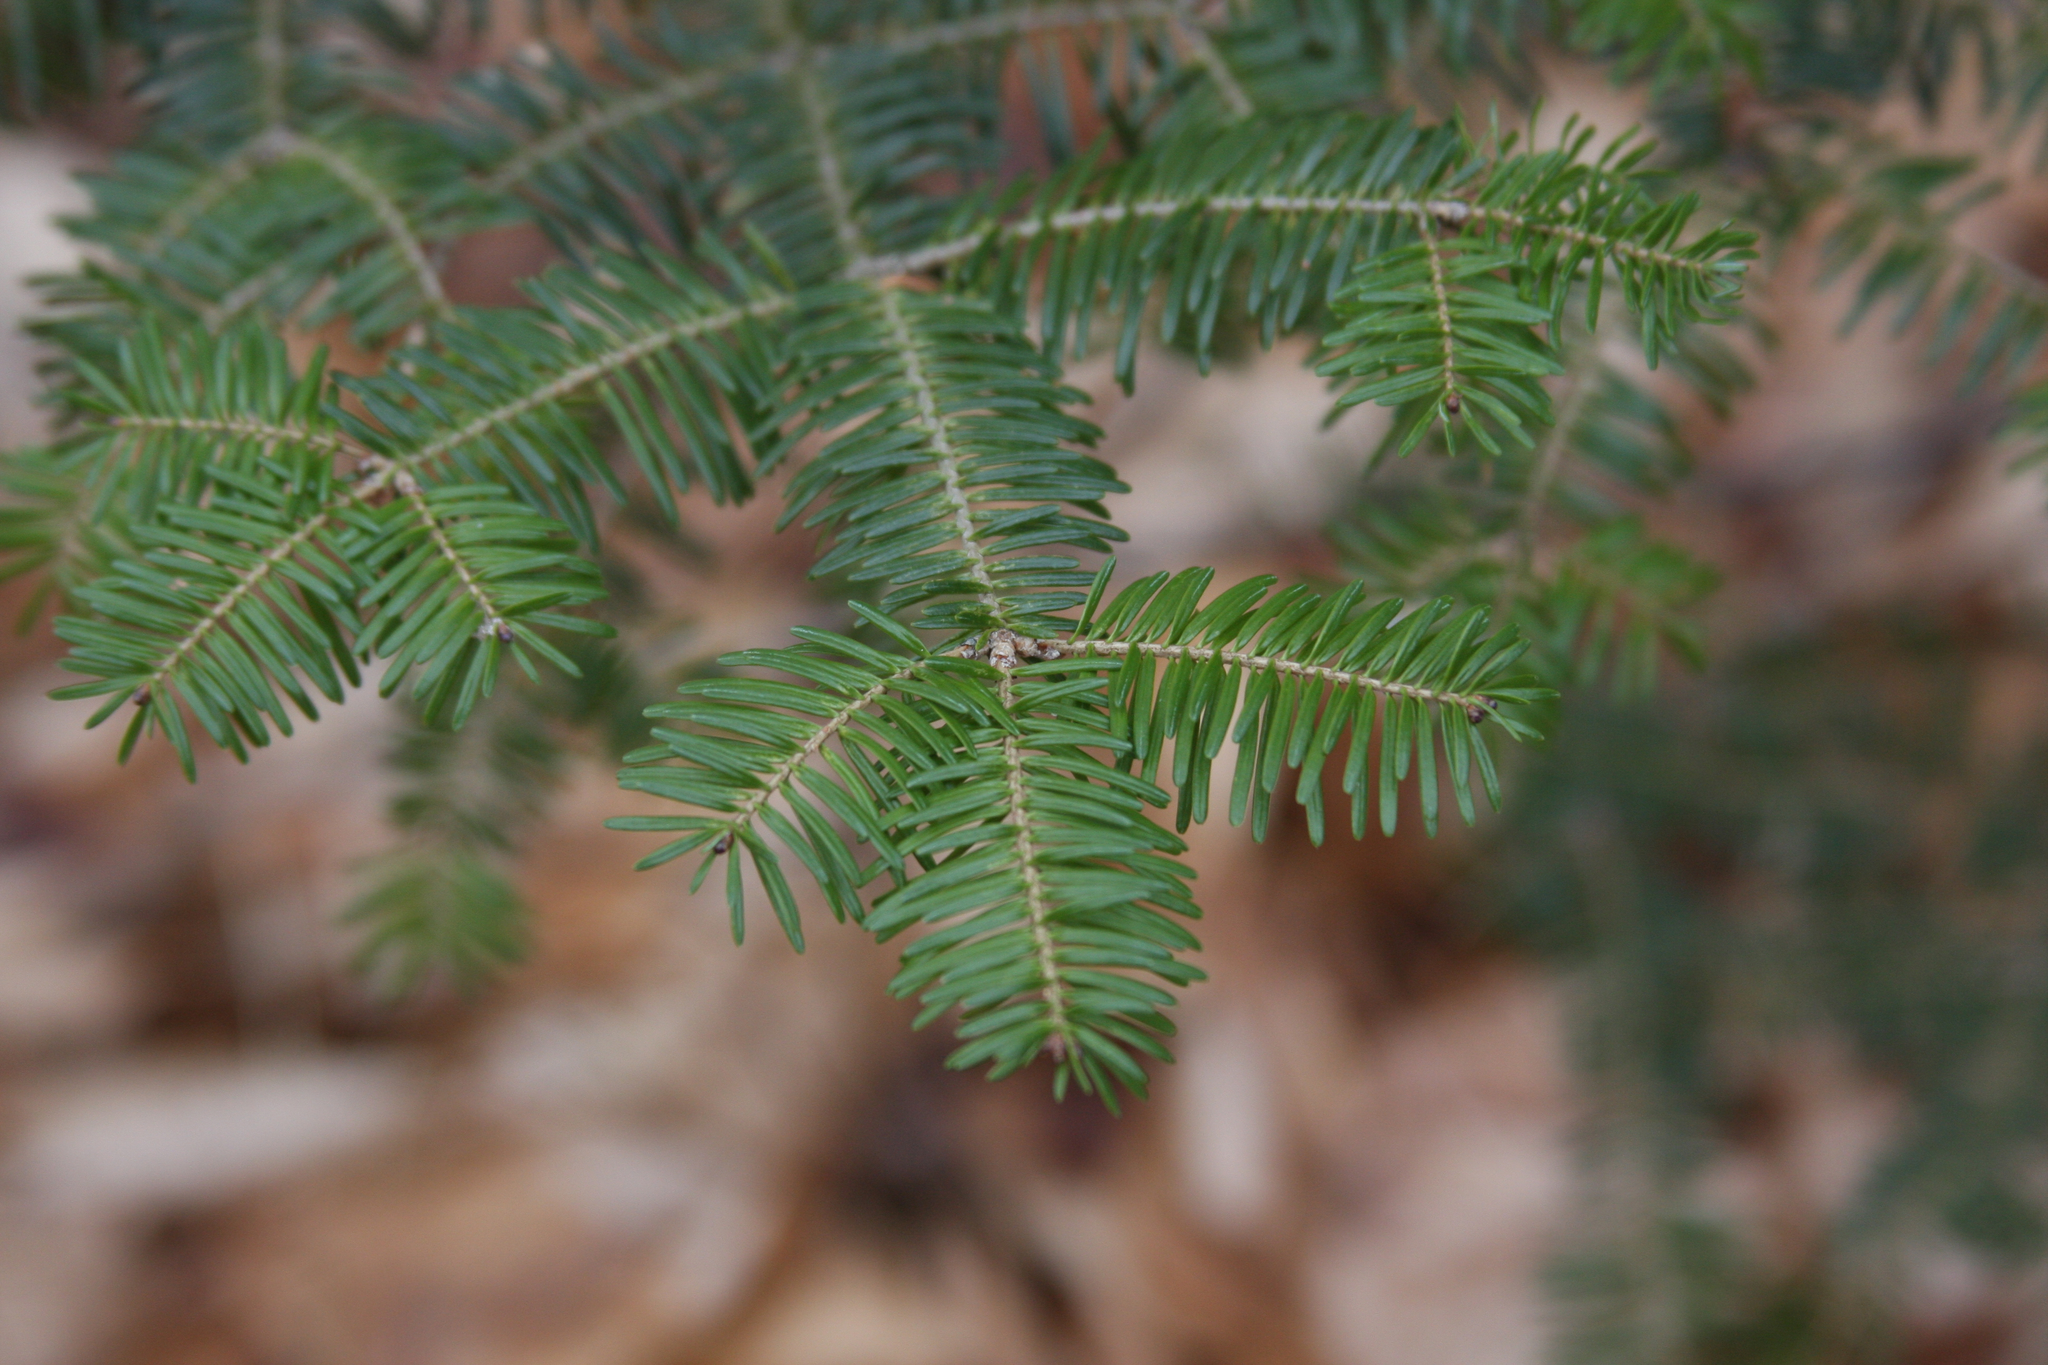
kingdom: Plantae
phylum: Tracheophyta
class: Pinopsida
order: Pinales
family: Pinaceae
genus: Abies
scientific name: Abies balsamea
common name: Balsam fir
